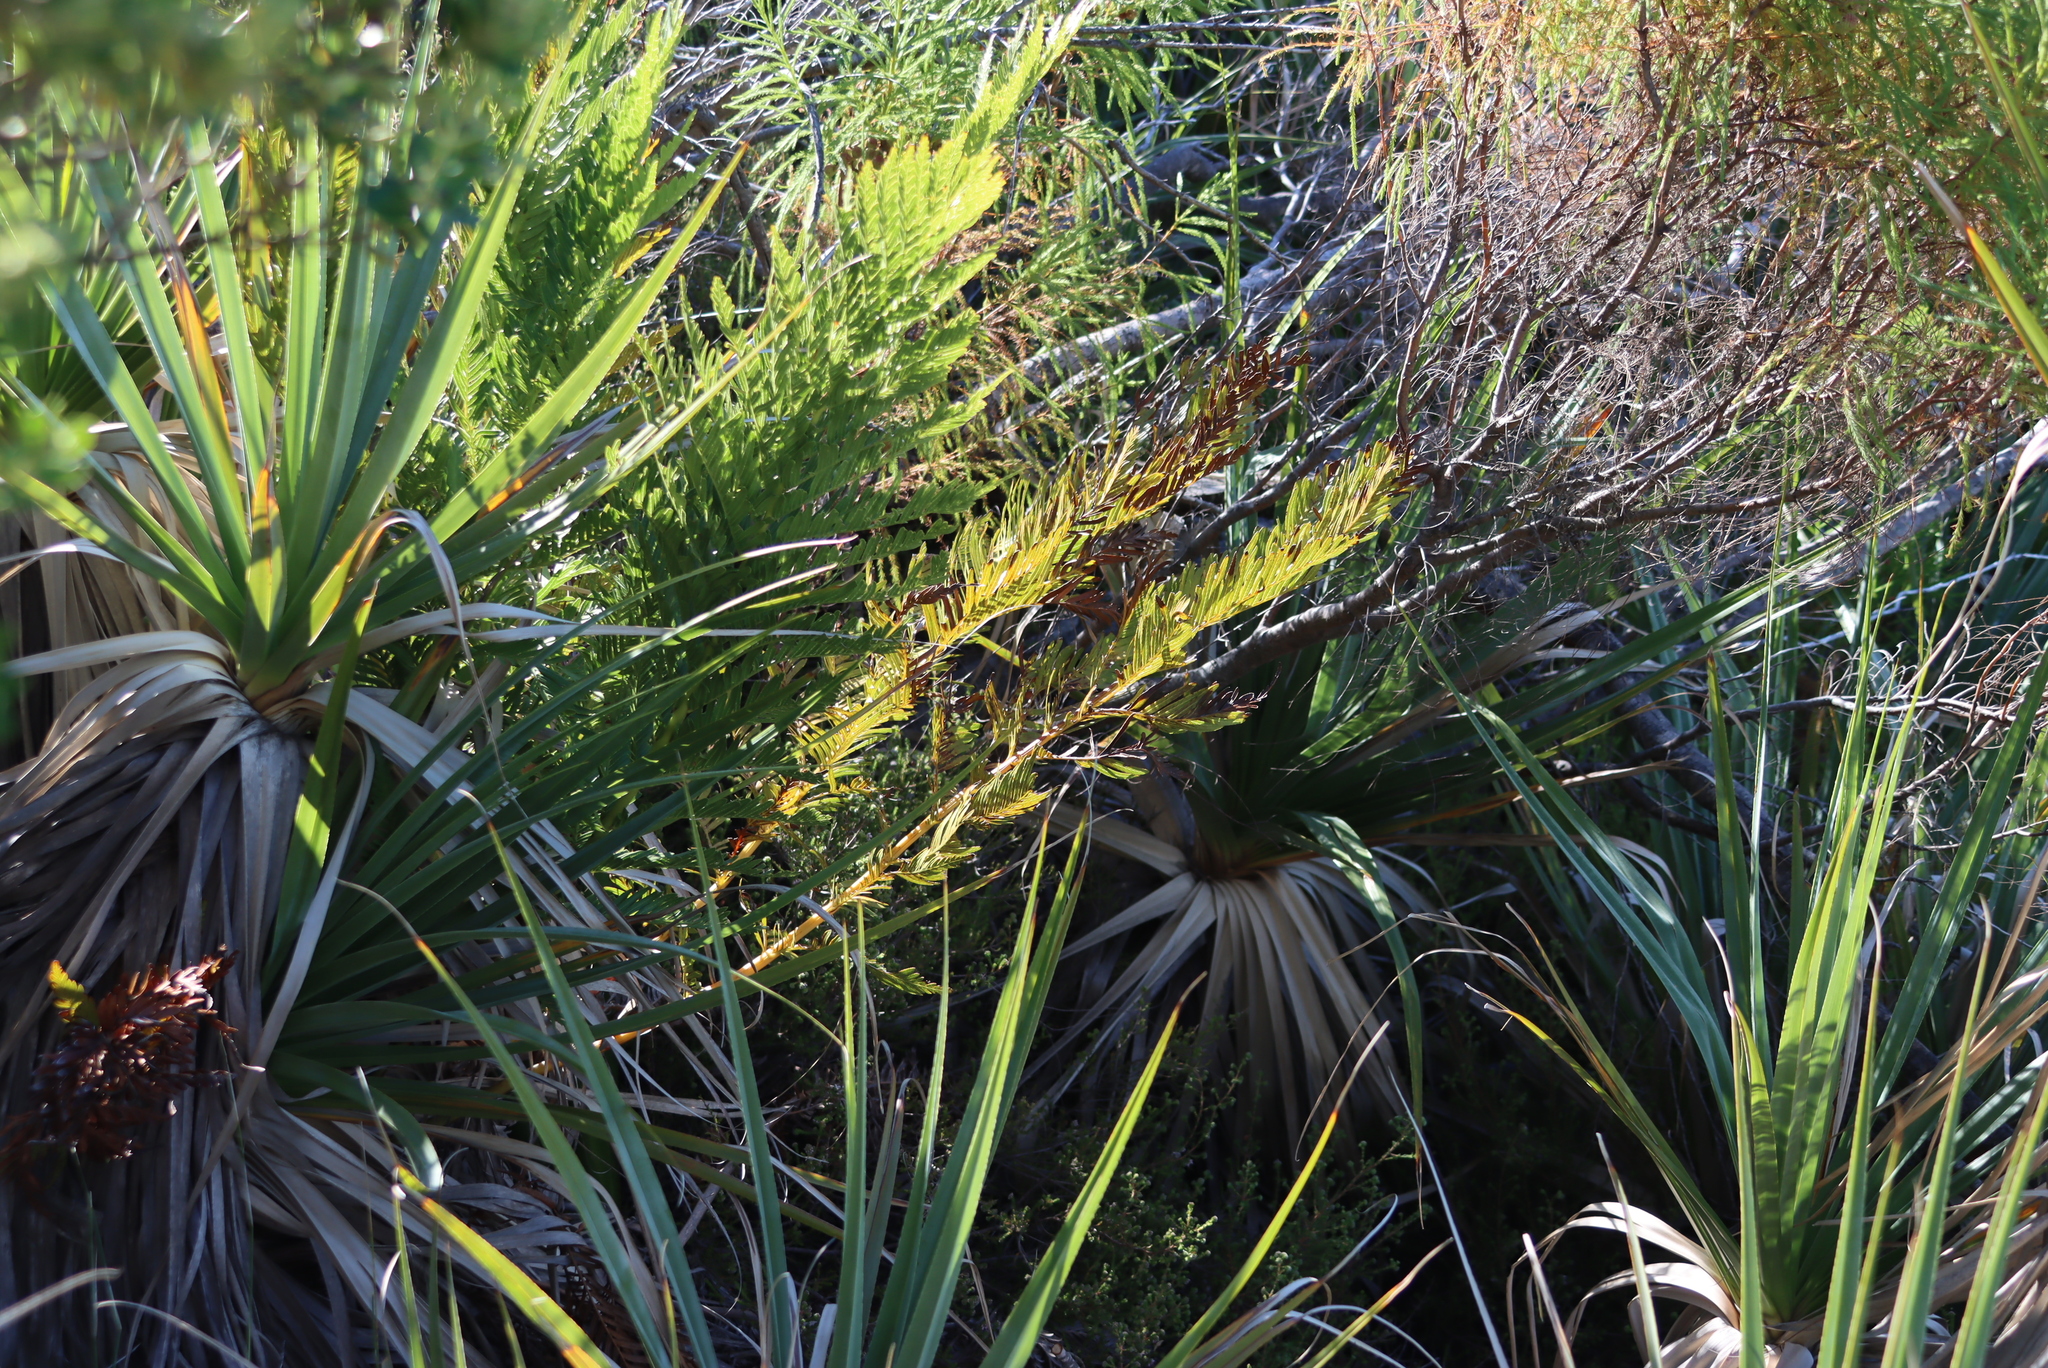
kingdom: Plantae
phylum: Tracheophyta
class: Polypodiopsida
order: Osmundales
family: Osmundaceae
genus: Todea
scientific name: Todea barbara
